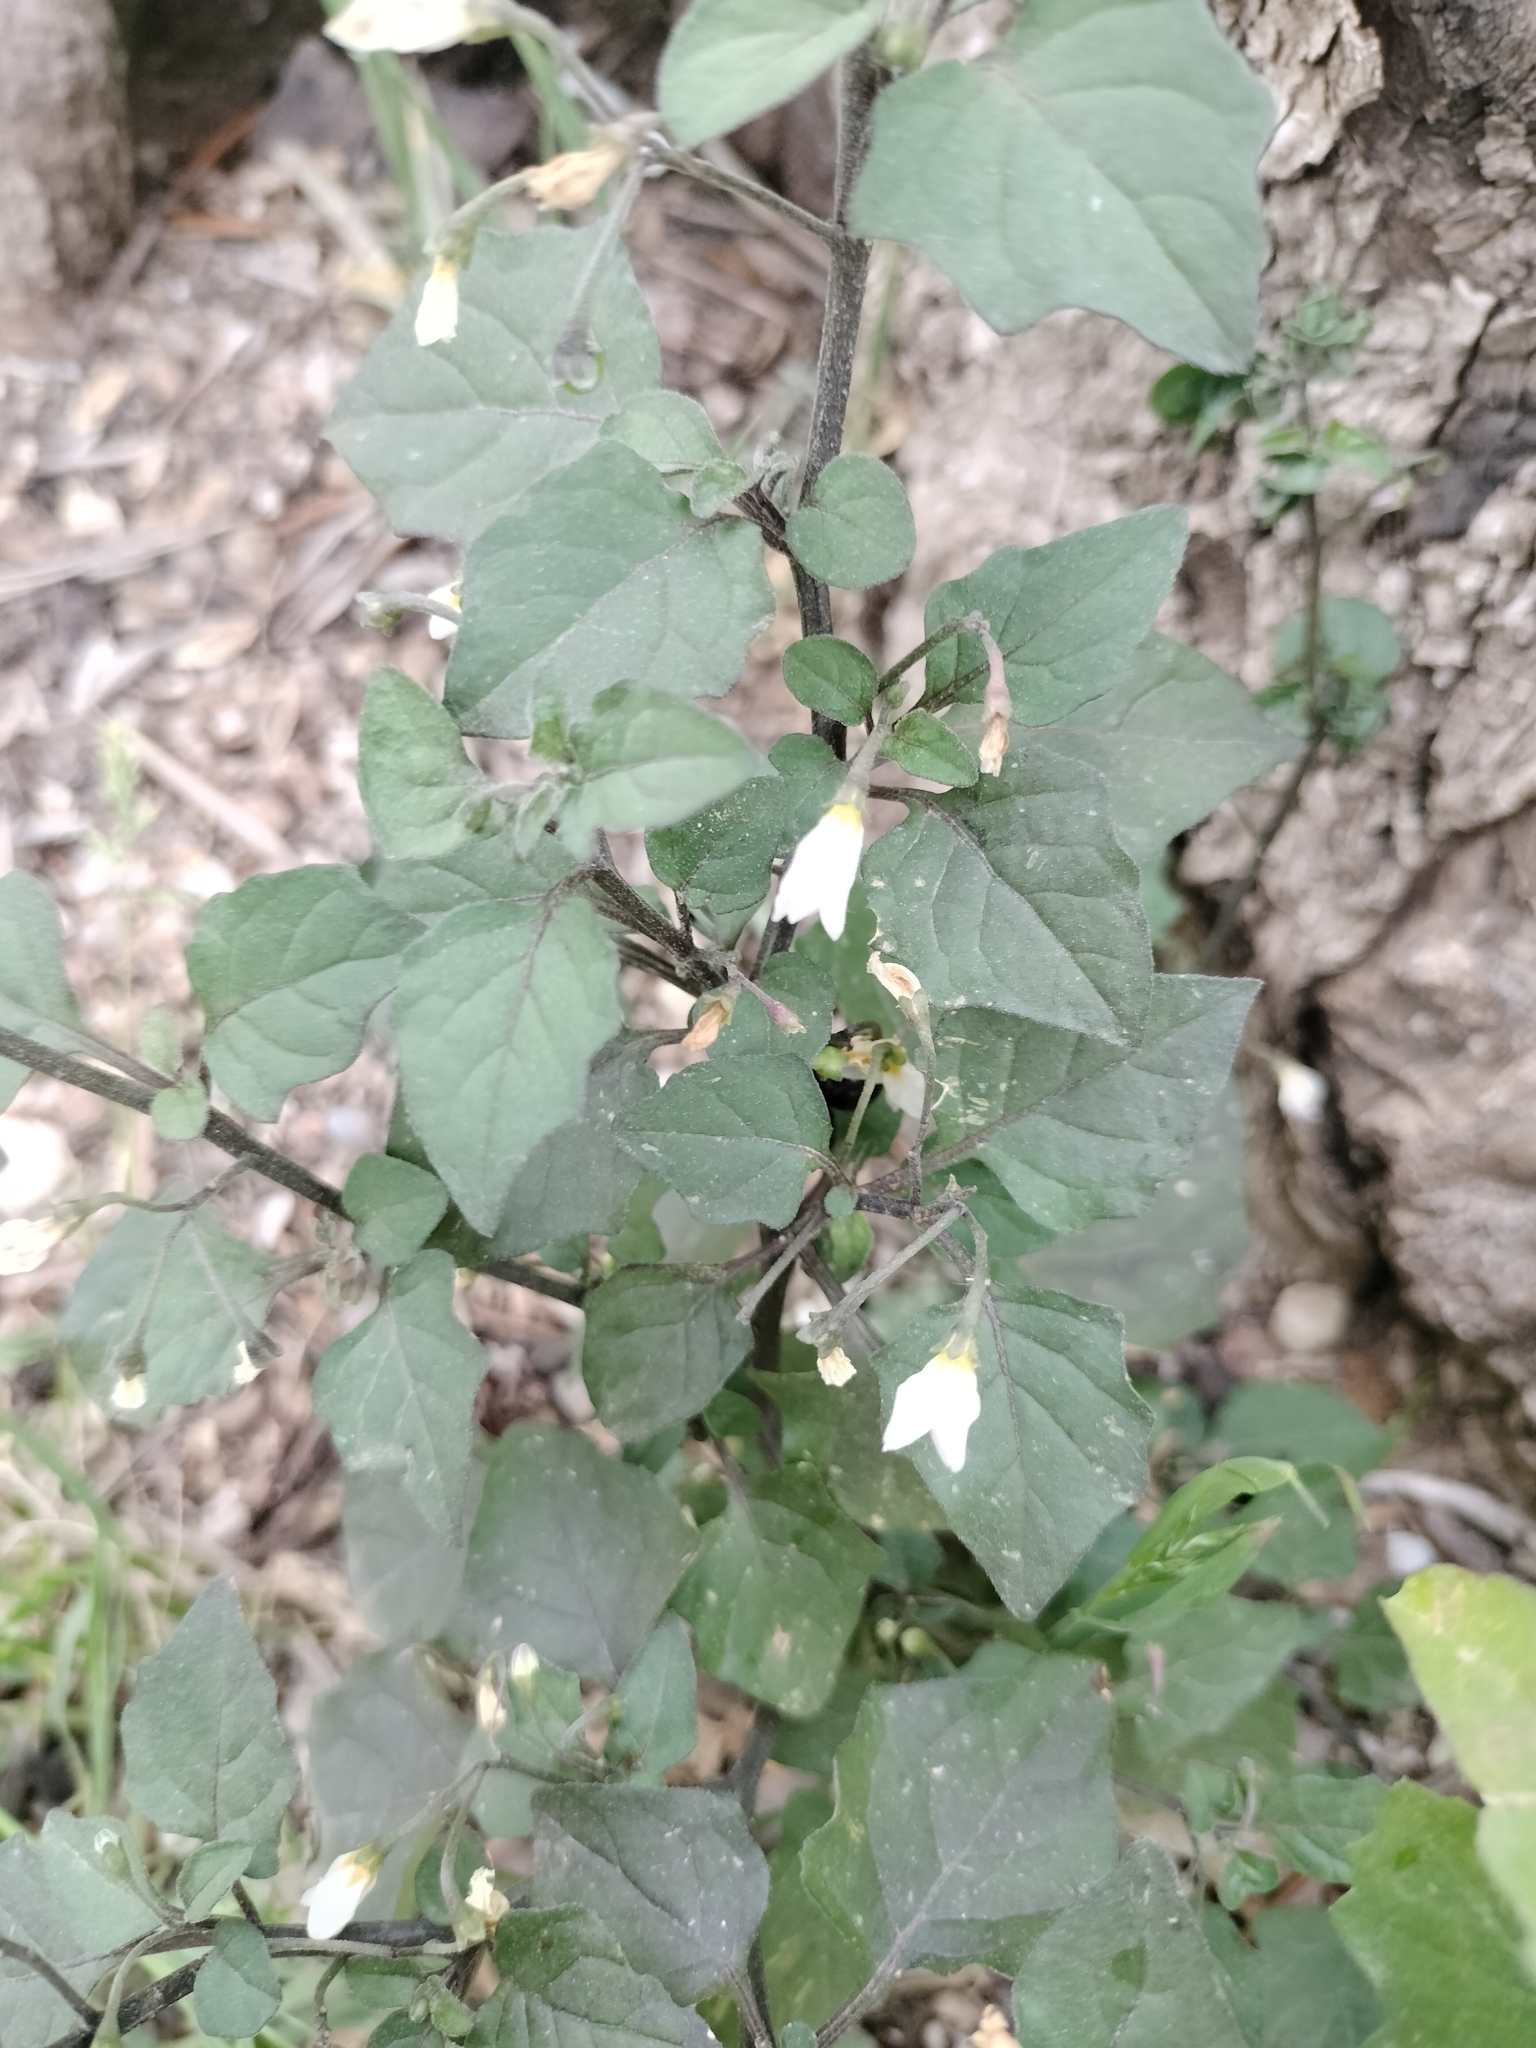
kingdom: Plantae
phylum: Tracheophyta
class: Magnoliopsida
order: Solanales
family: Solanaceae
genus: Solanum
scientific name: Solanum nigrum
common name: Black nightshade
